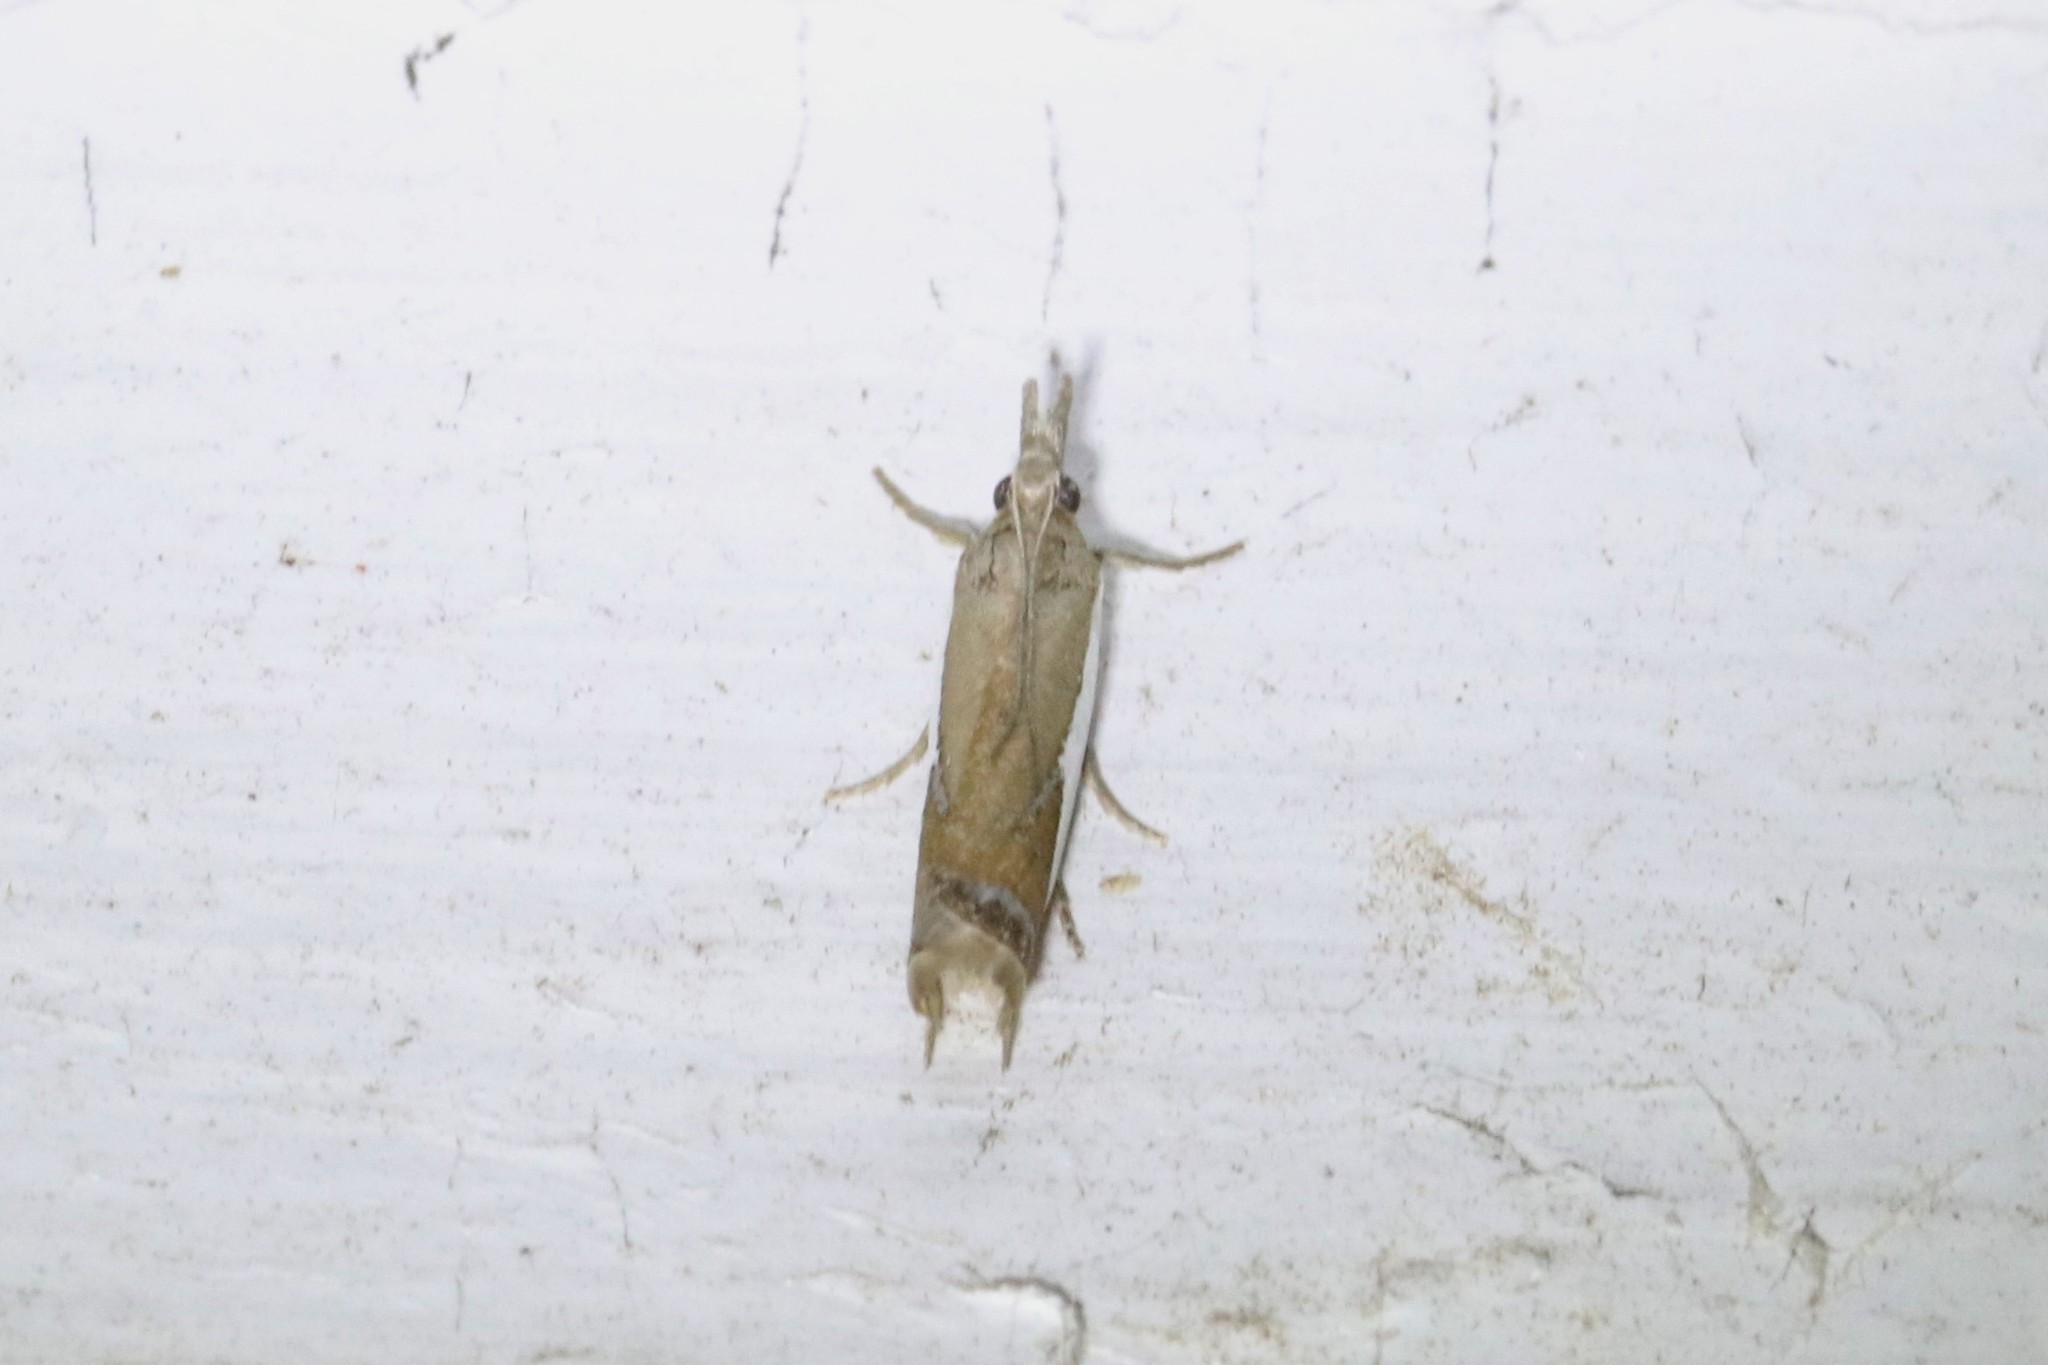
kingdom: Animalia
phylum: Arthropoda
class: Insecta
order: Lepidoptera
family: Crambidae
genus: Crambus
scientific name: Crambus
